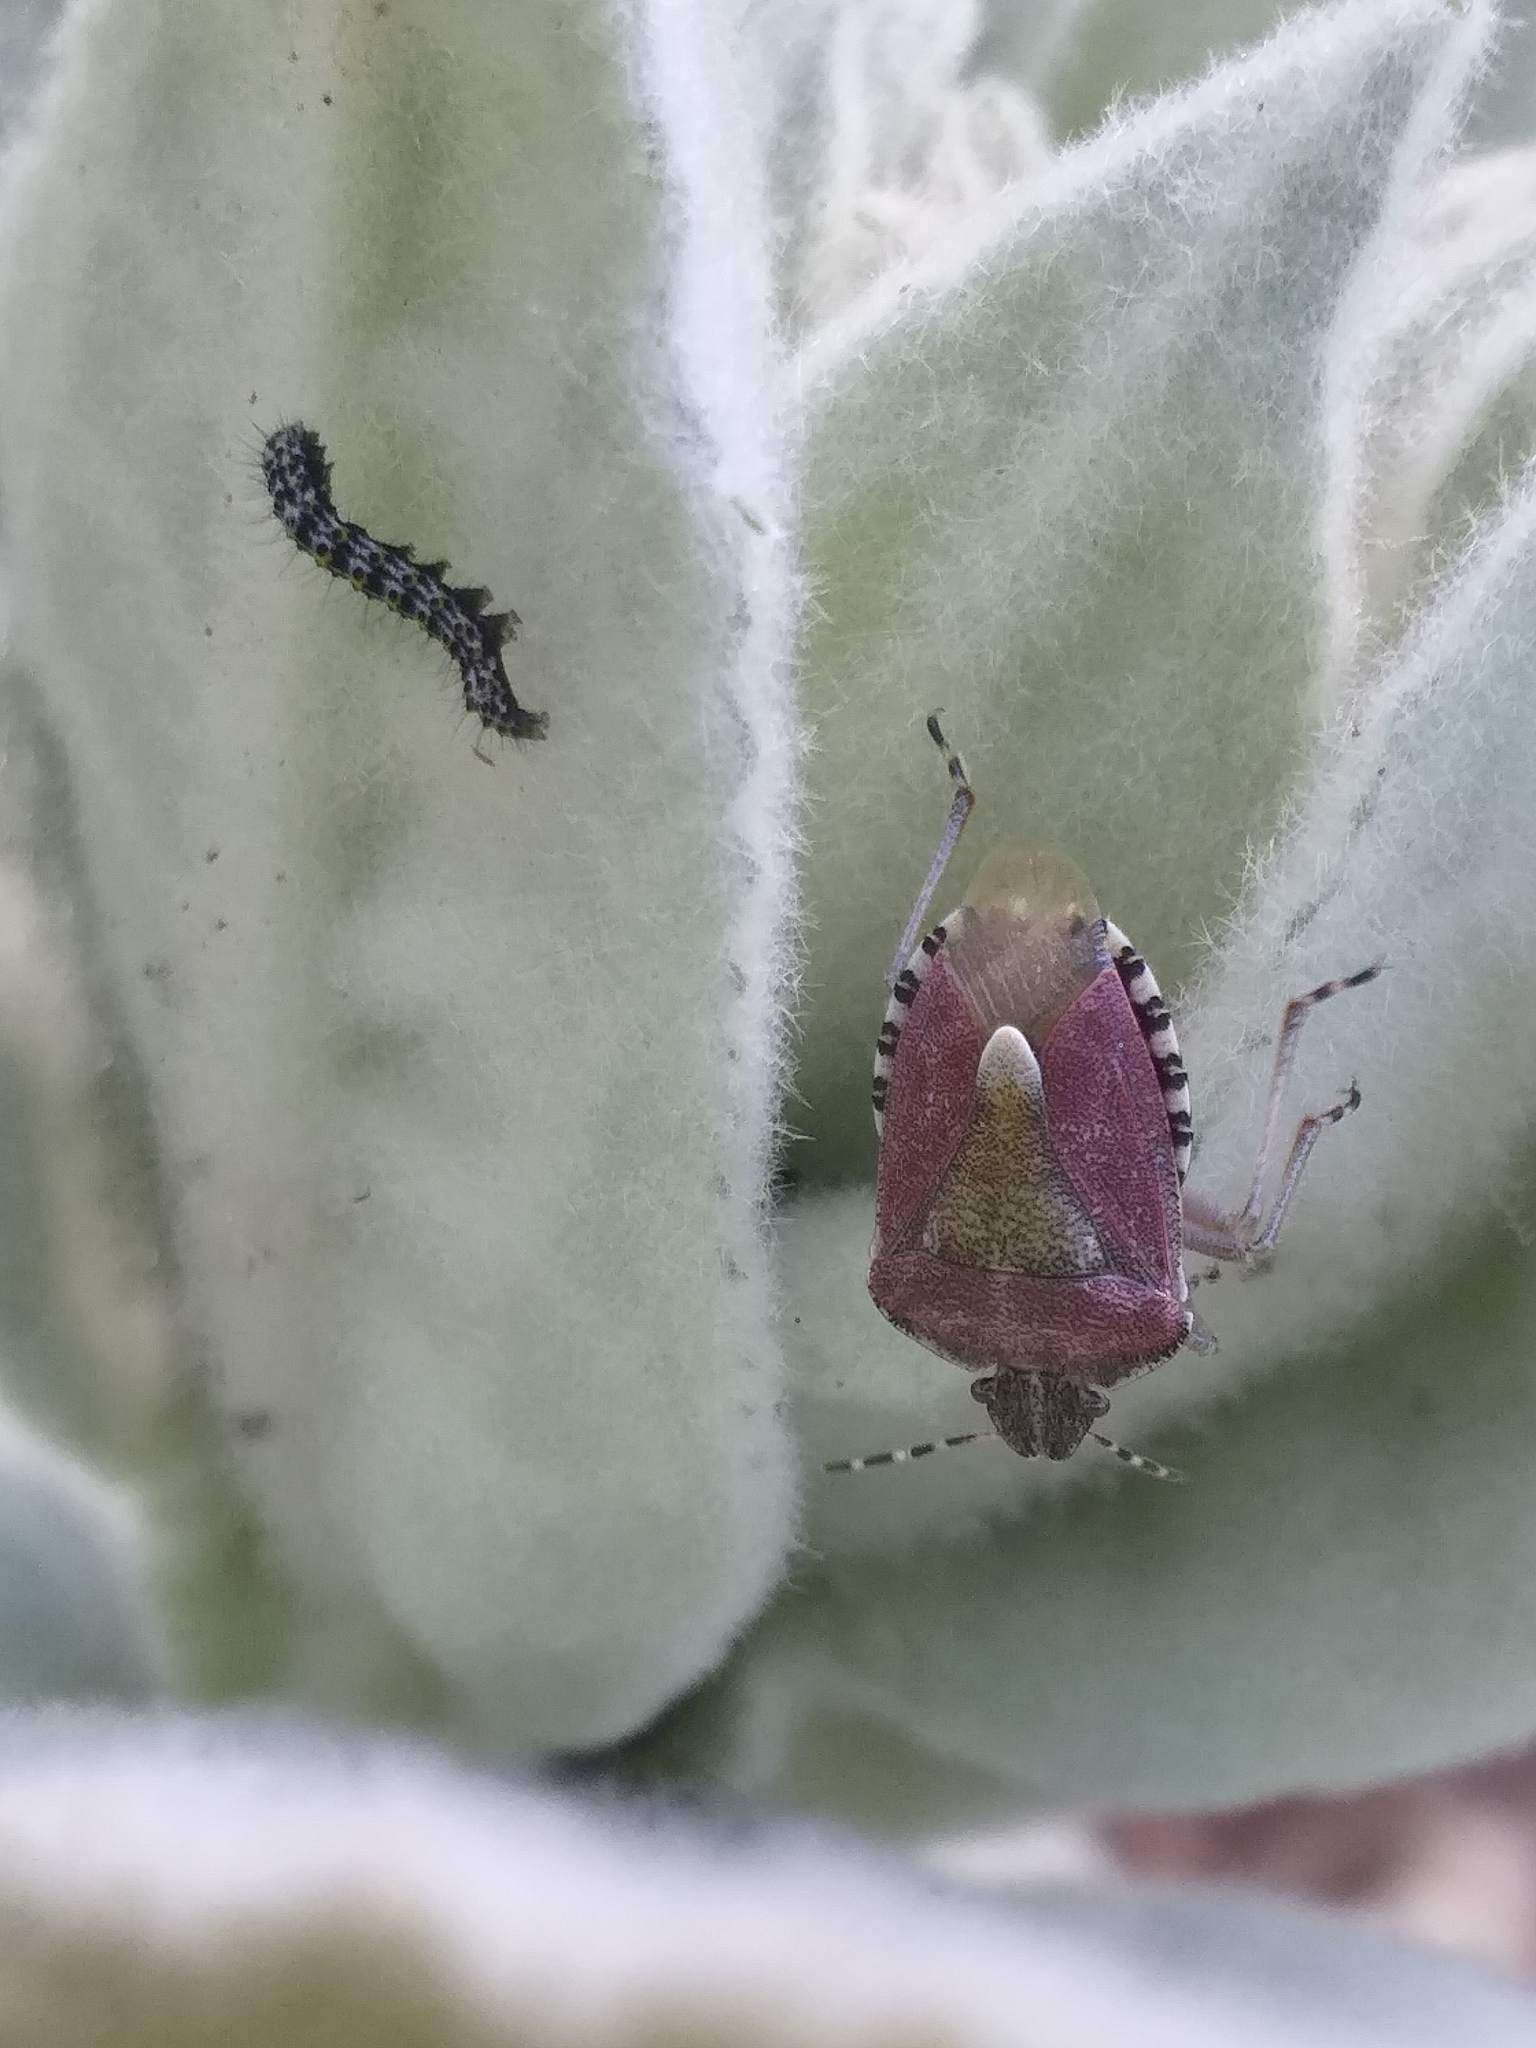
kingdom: Animalia
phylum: Arthropoda
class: Insecta
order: Hemiptera
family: Pentatomidae
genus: Dolycoris
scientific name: Dolycoris baccarum
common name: Sloe bug
